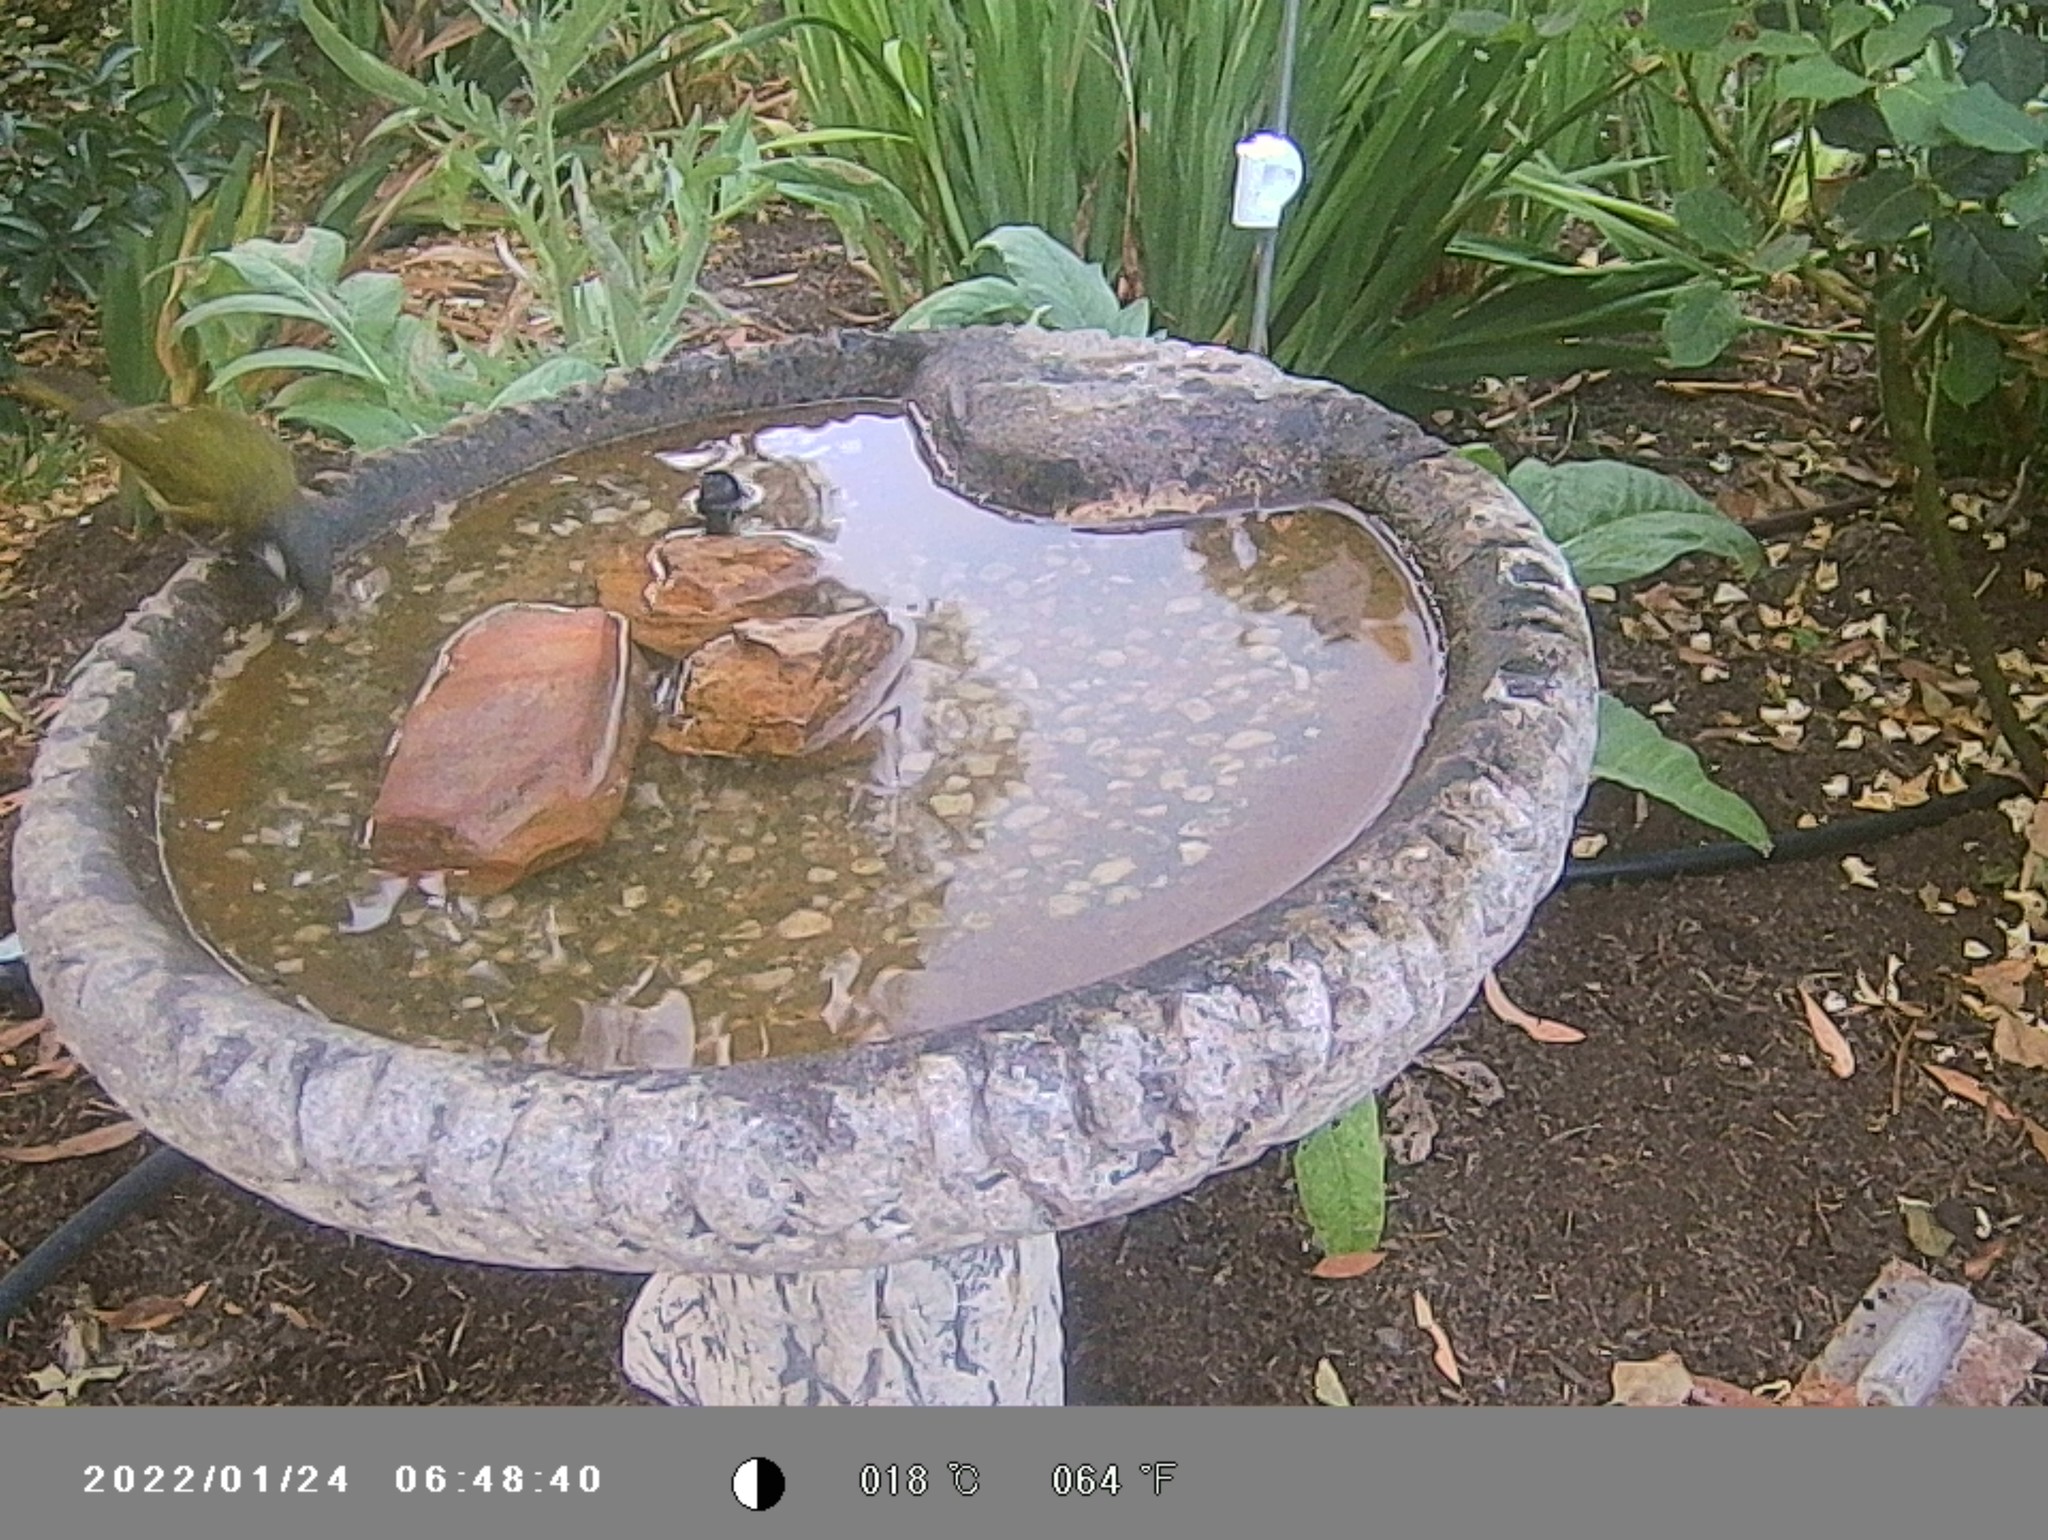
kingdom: Animalia
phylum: Chordata
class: Aves
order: Passeriformes
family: Meliphagidae
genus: Nesoptilotis
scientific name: Nesoptilotis leucotis
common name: White-eared honeyeater
